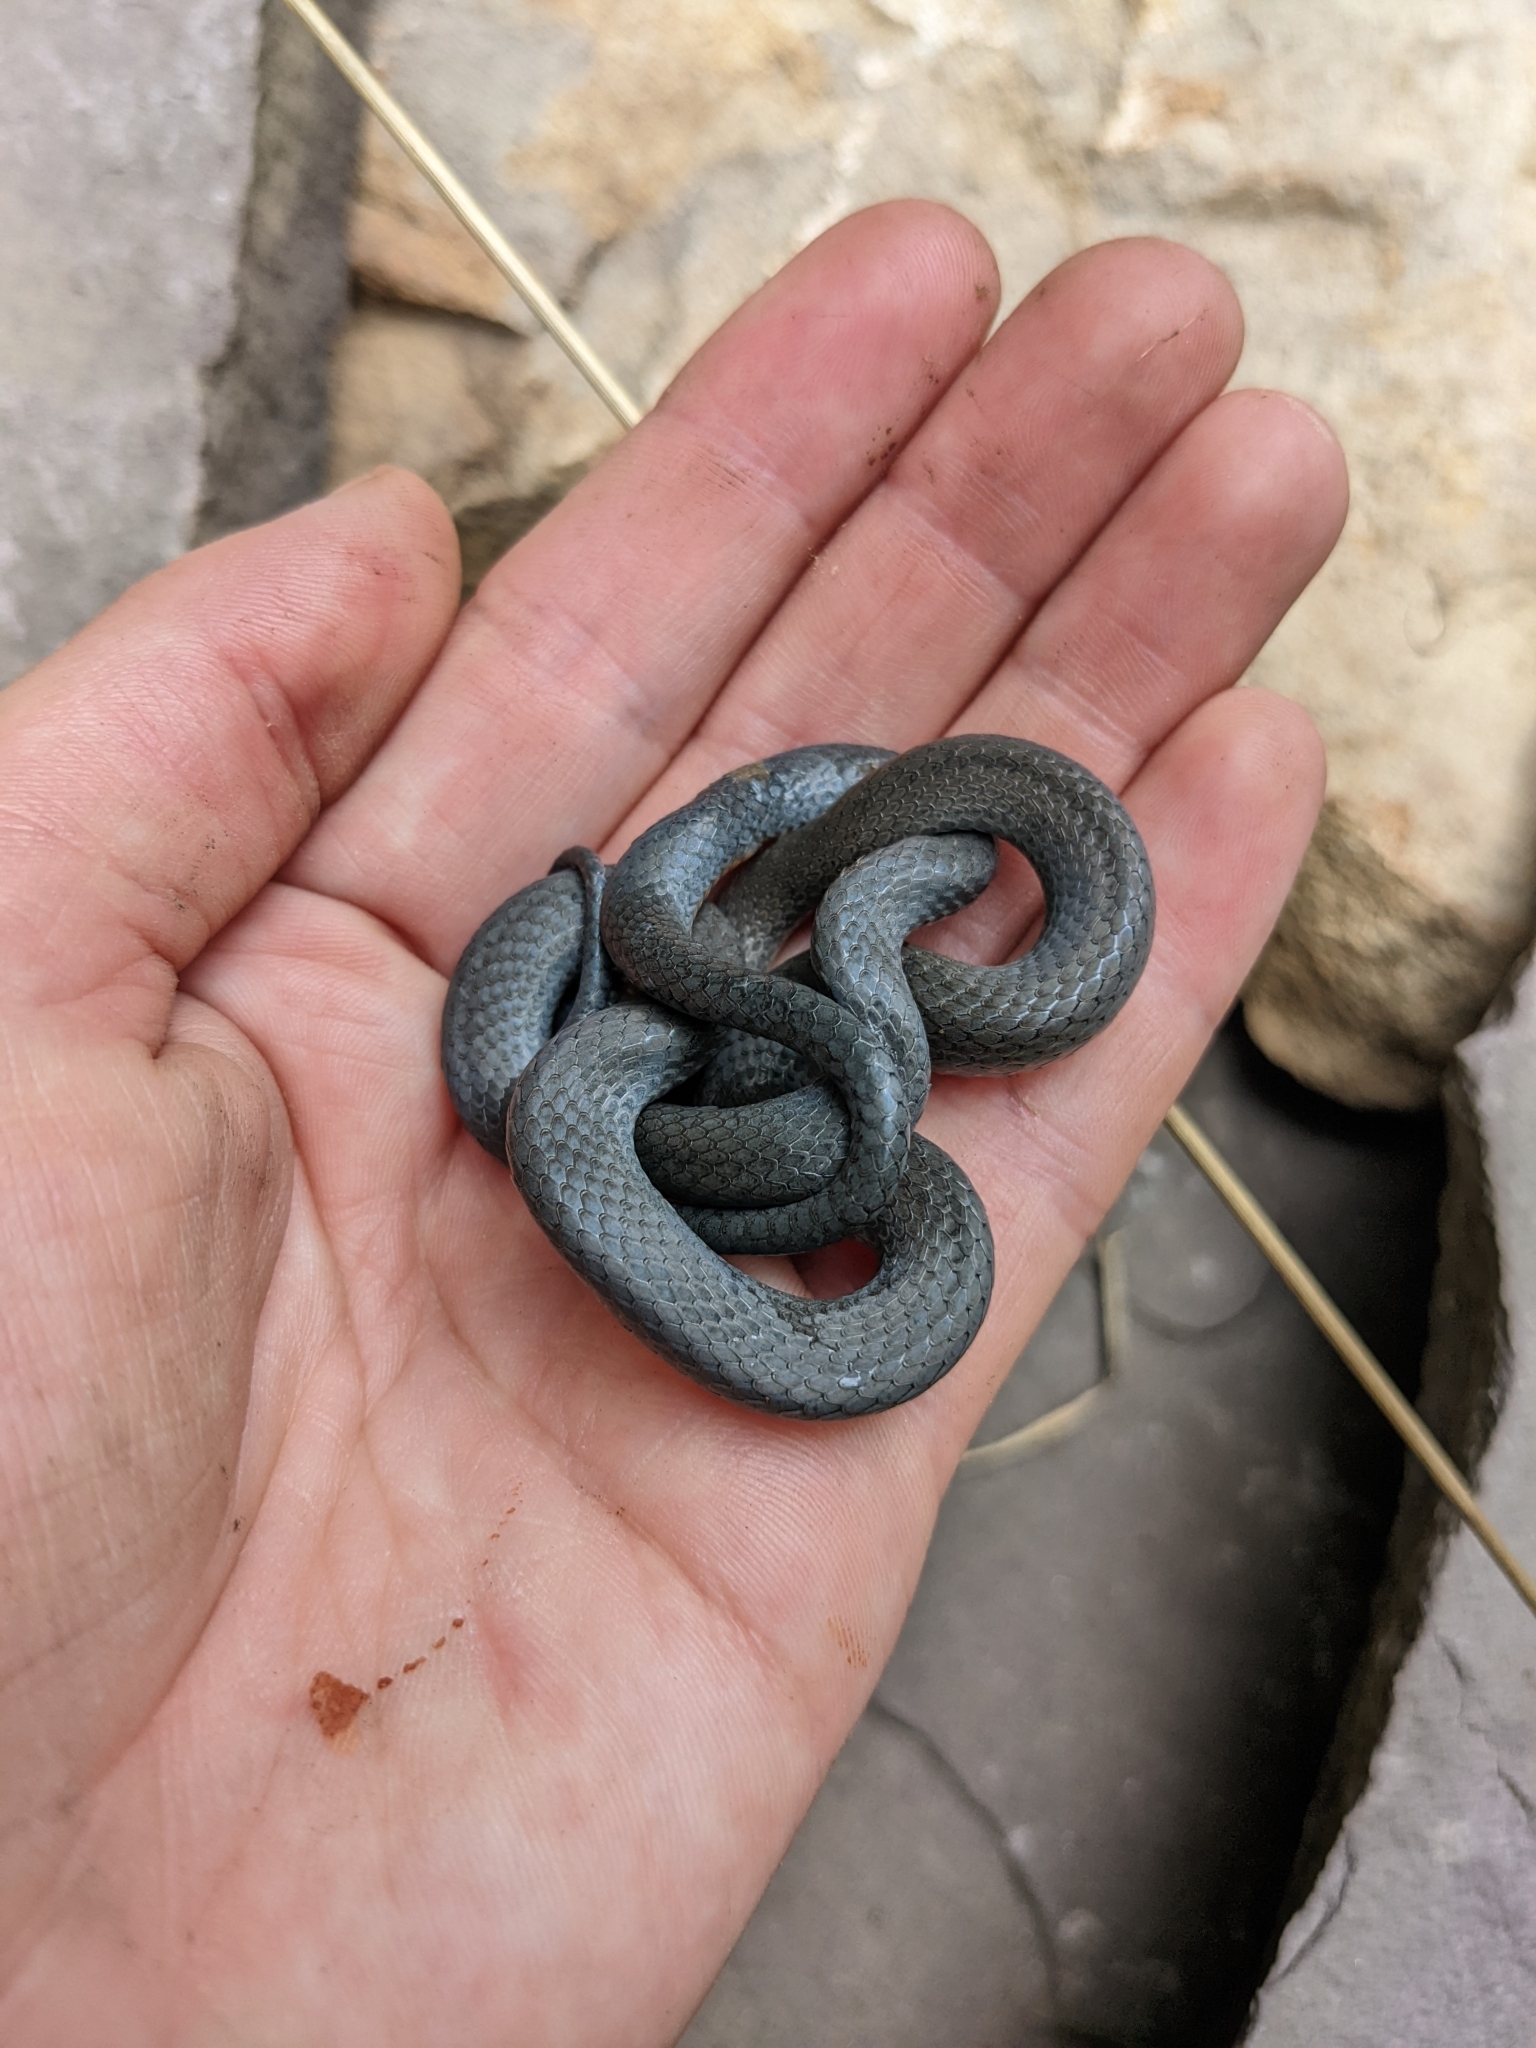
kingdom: Animalia
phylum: Chordata
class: Squamata
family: Colubridae
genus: Diadophis
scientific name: Diadophis punctatus
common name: Ringneck snake
